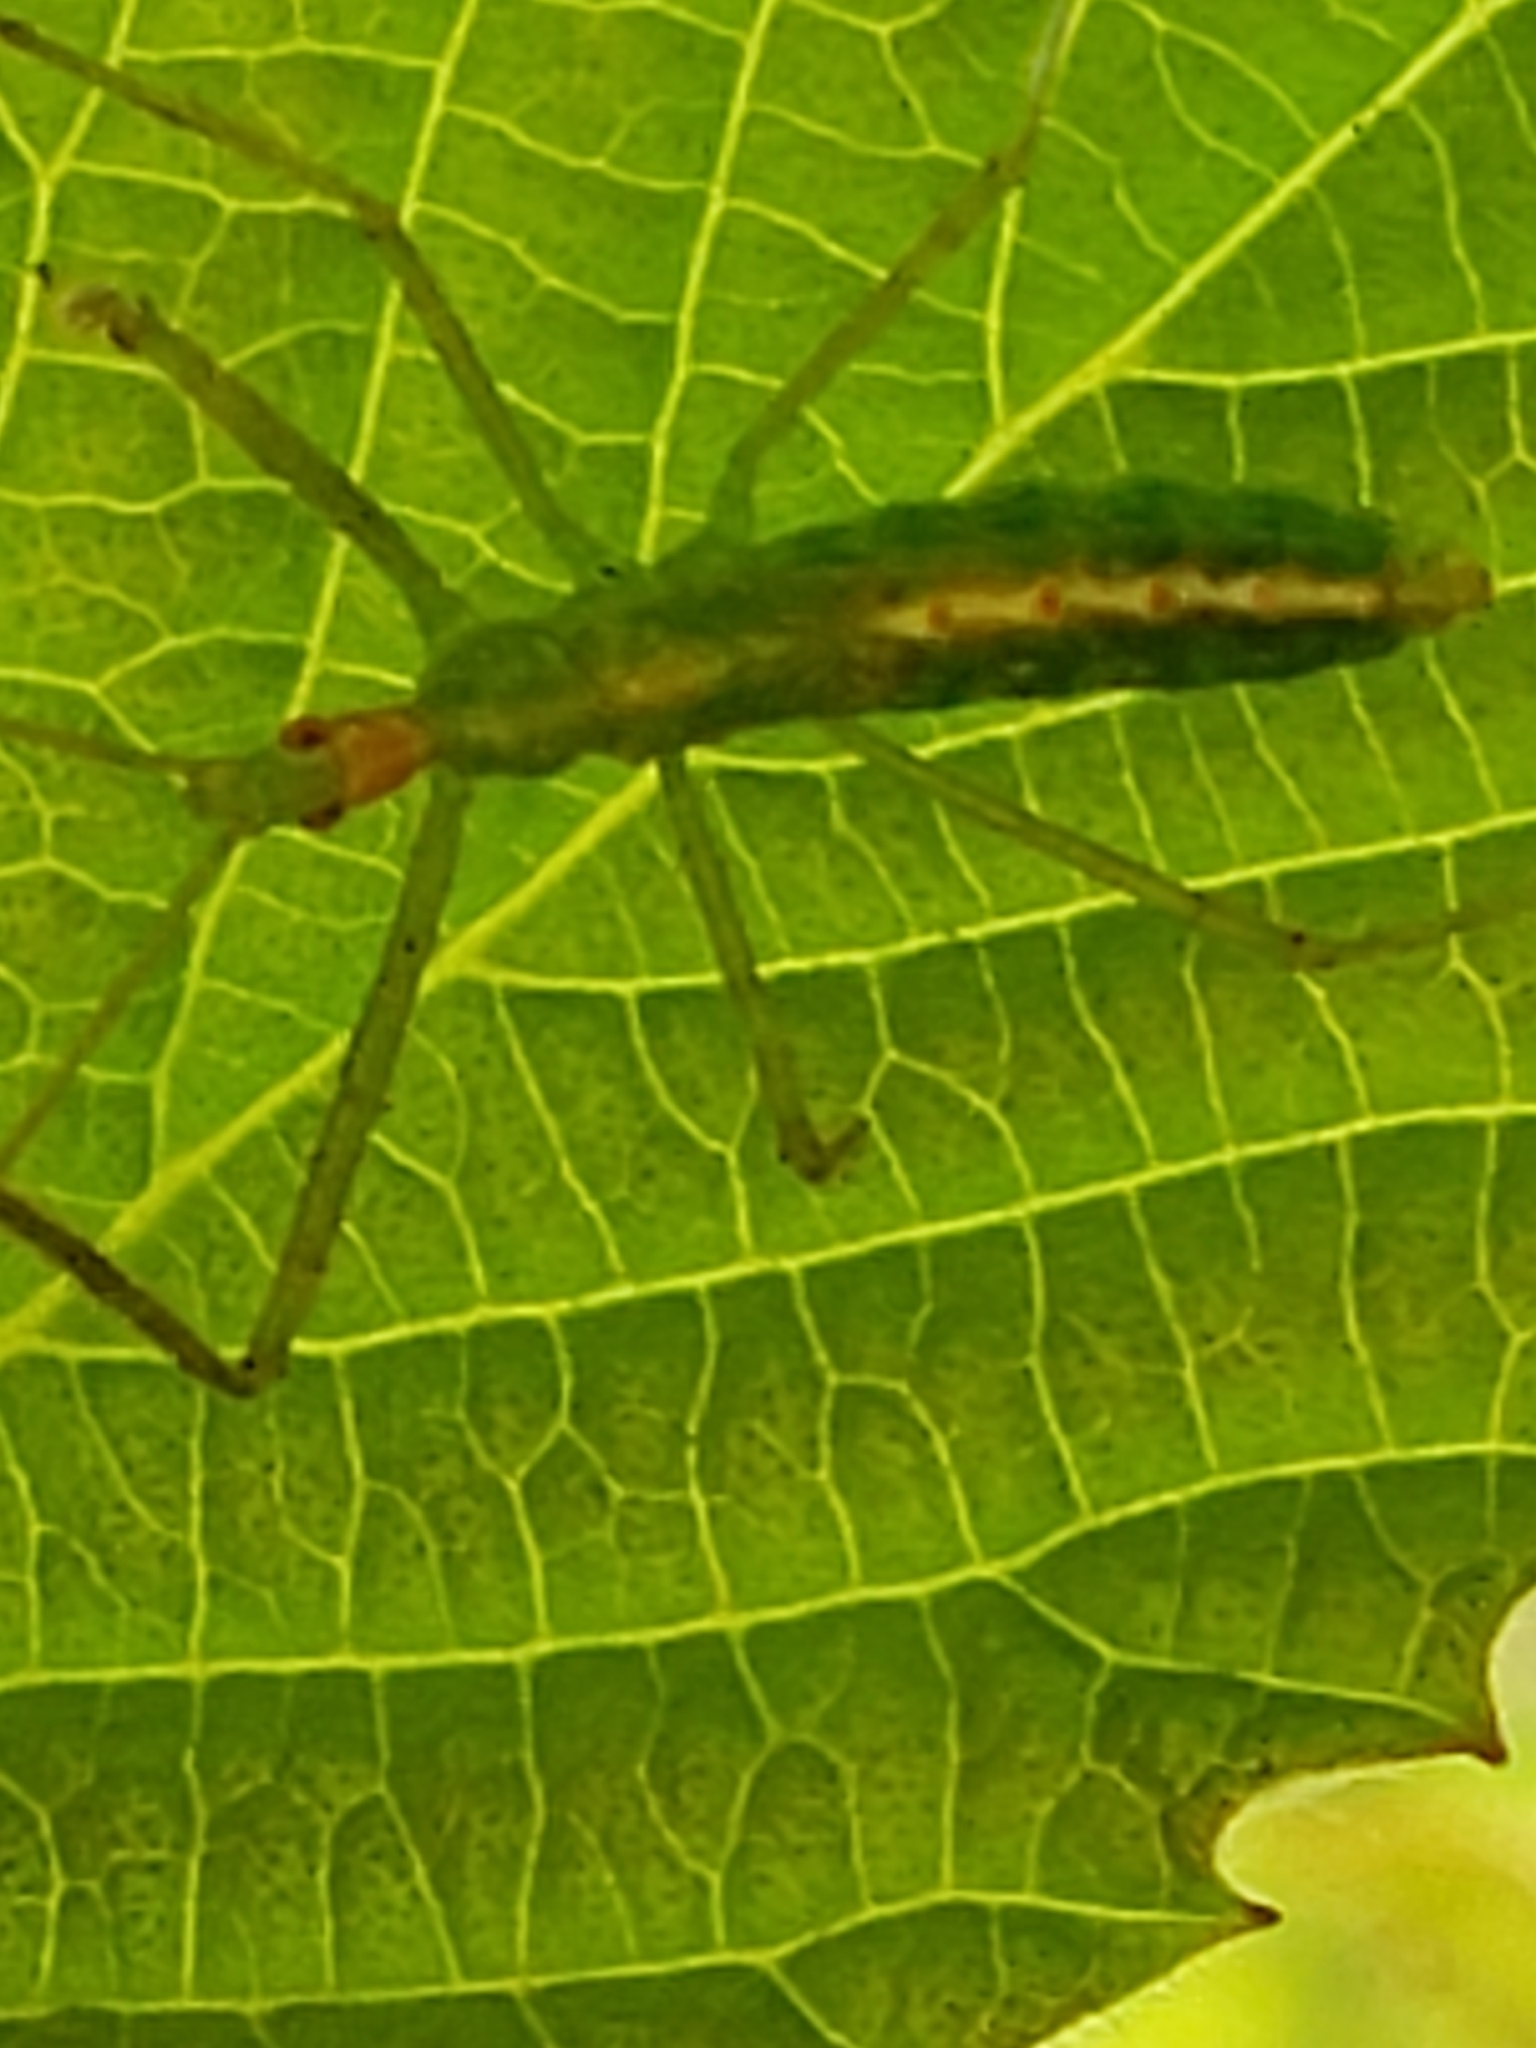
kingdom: Animalia
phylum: Arthropoda
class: Insecta
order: Hemiptera
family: Reduviidae
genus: Zelus
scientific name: Zelus luridus
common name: Pale green assassin bug
